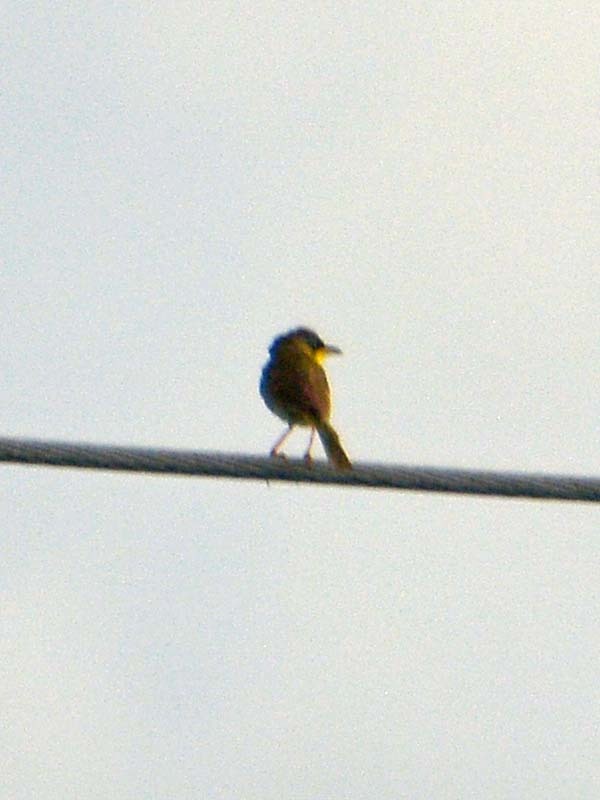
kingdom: Animalia
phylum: Chordata
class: Aves
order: Passeriformes
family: Parulidae
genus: Geothlypis
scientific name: Geothlypis poliocephala
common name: Gray-crowned yellowthroat
